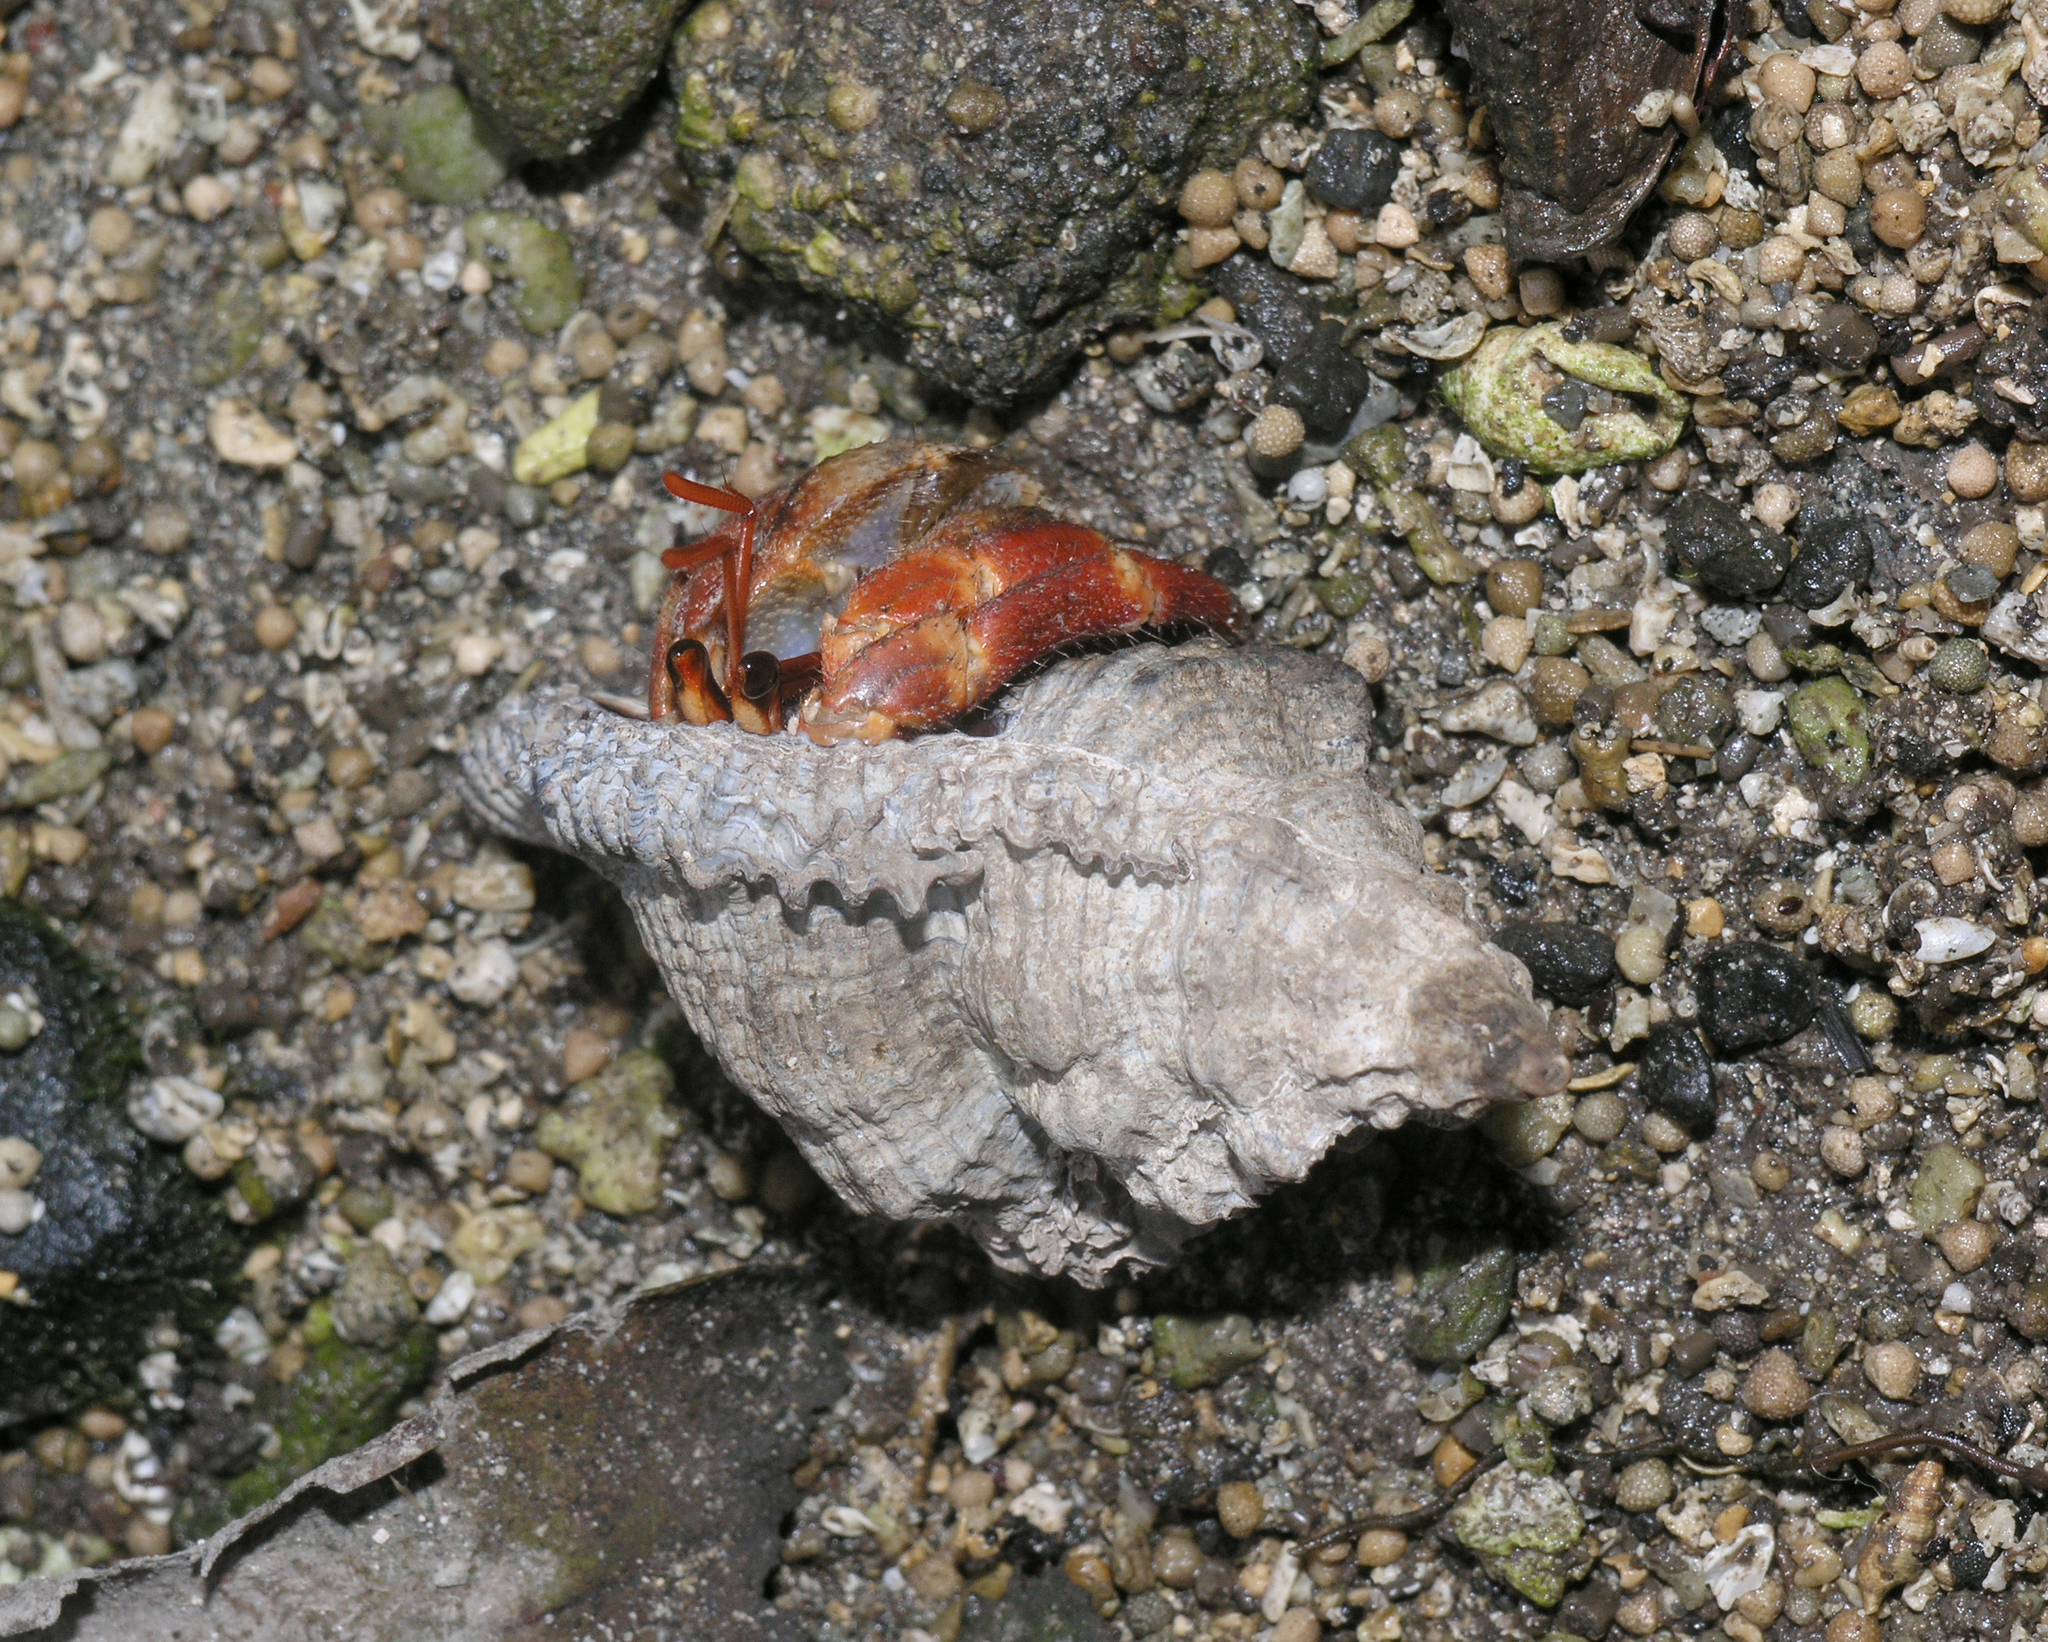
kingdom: Animalia
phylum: Arthropoda
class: Malacostraca
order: Decapoda
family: Coenobitidae
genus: Coenobita
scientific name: Coenobita violascens
